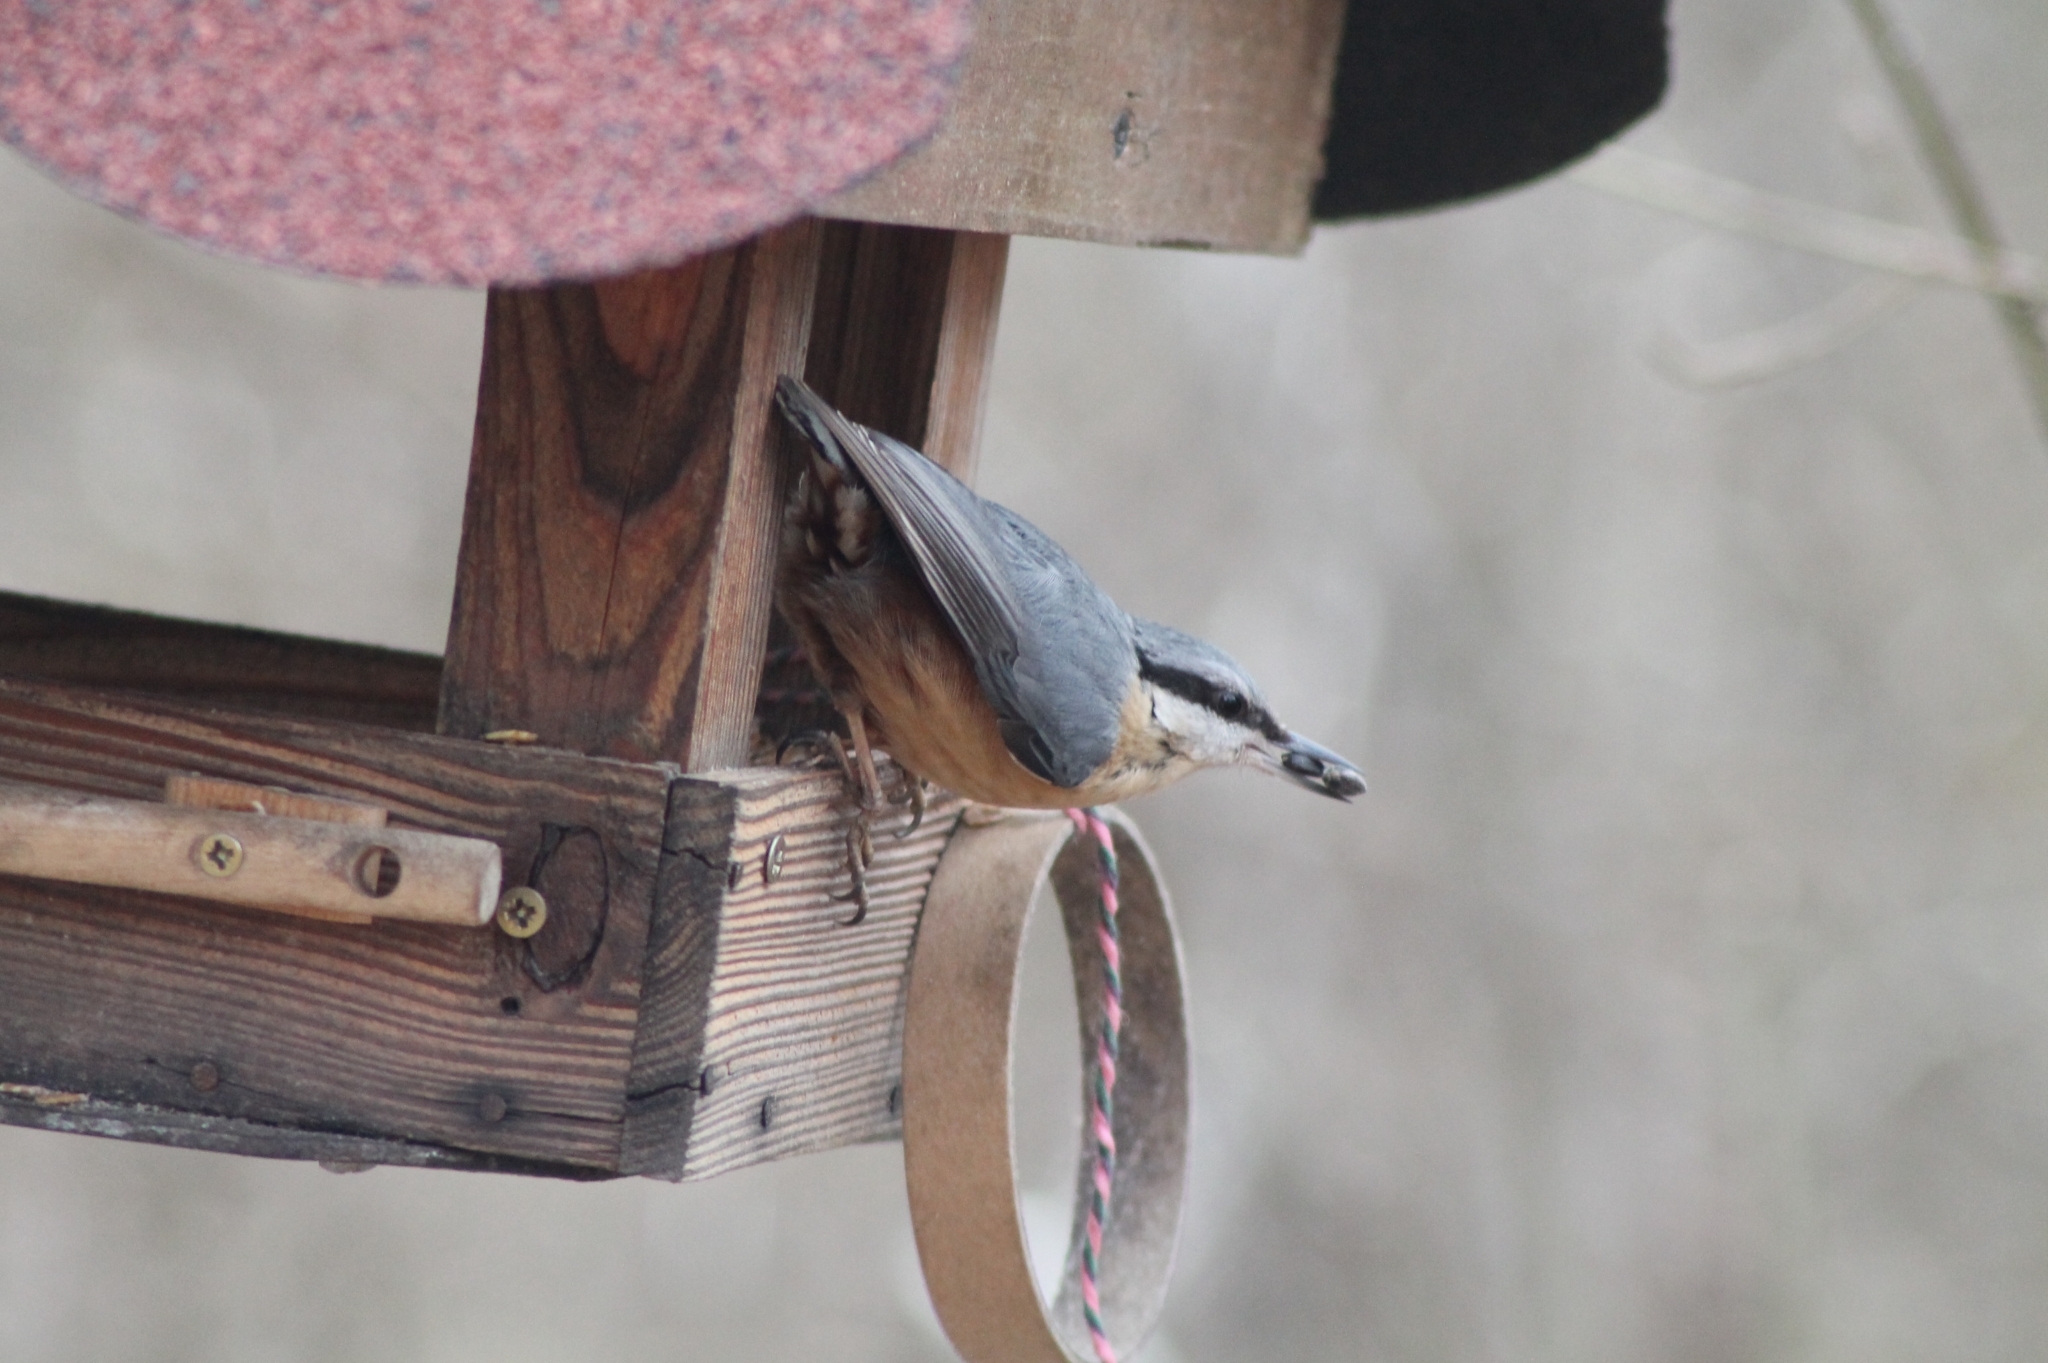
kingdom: Animalia
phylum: Chordata
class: Aves
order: Passeriformes
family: Sittidae
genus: Sitta
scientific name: Sitta europaea
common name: Eurasian nuthatch
